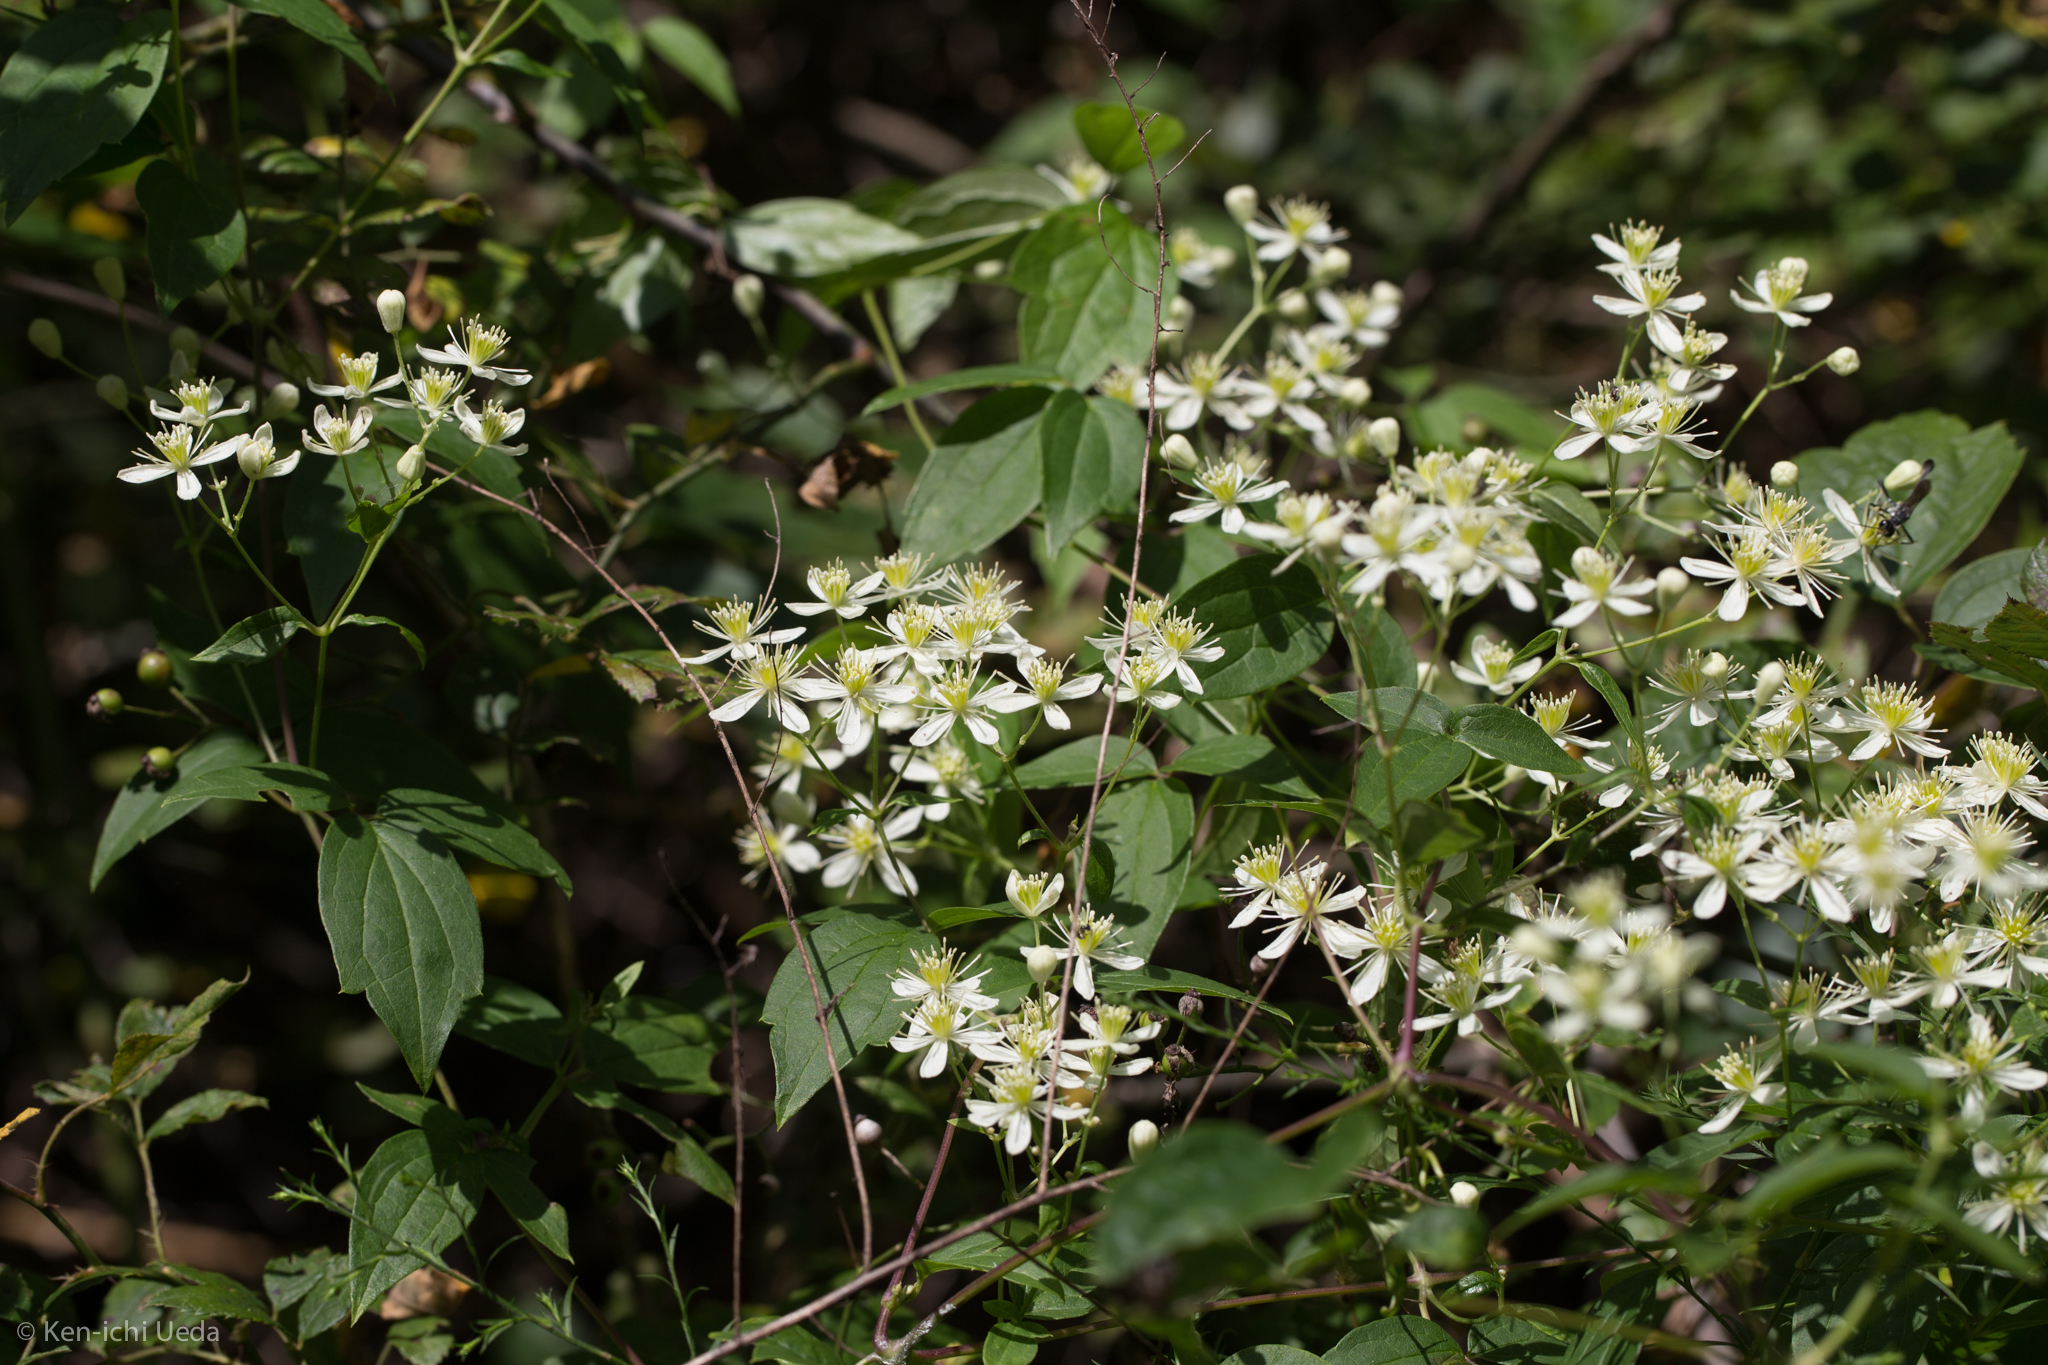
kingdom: Plantae
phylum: Tracheophyta
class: Magnoliopsida
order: Ranunculales
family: Ranunculaceae
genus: Clematis
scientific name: Clematis virginiana
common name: Virgin's-bower
